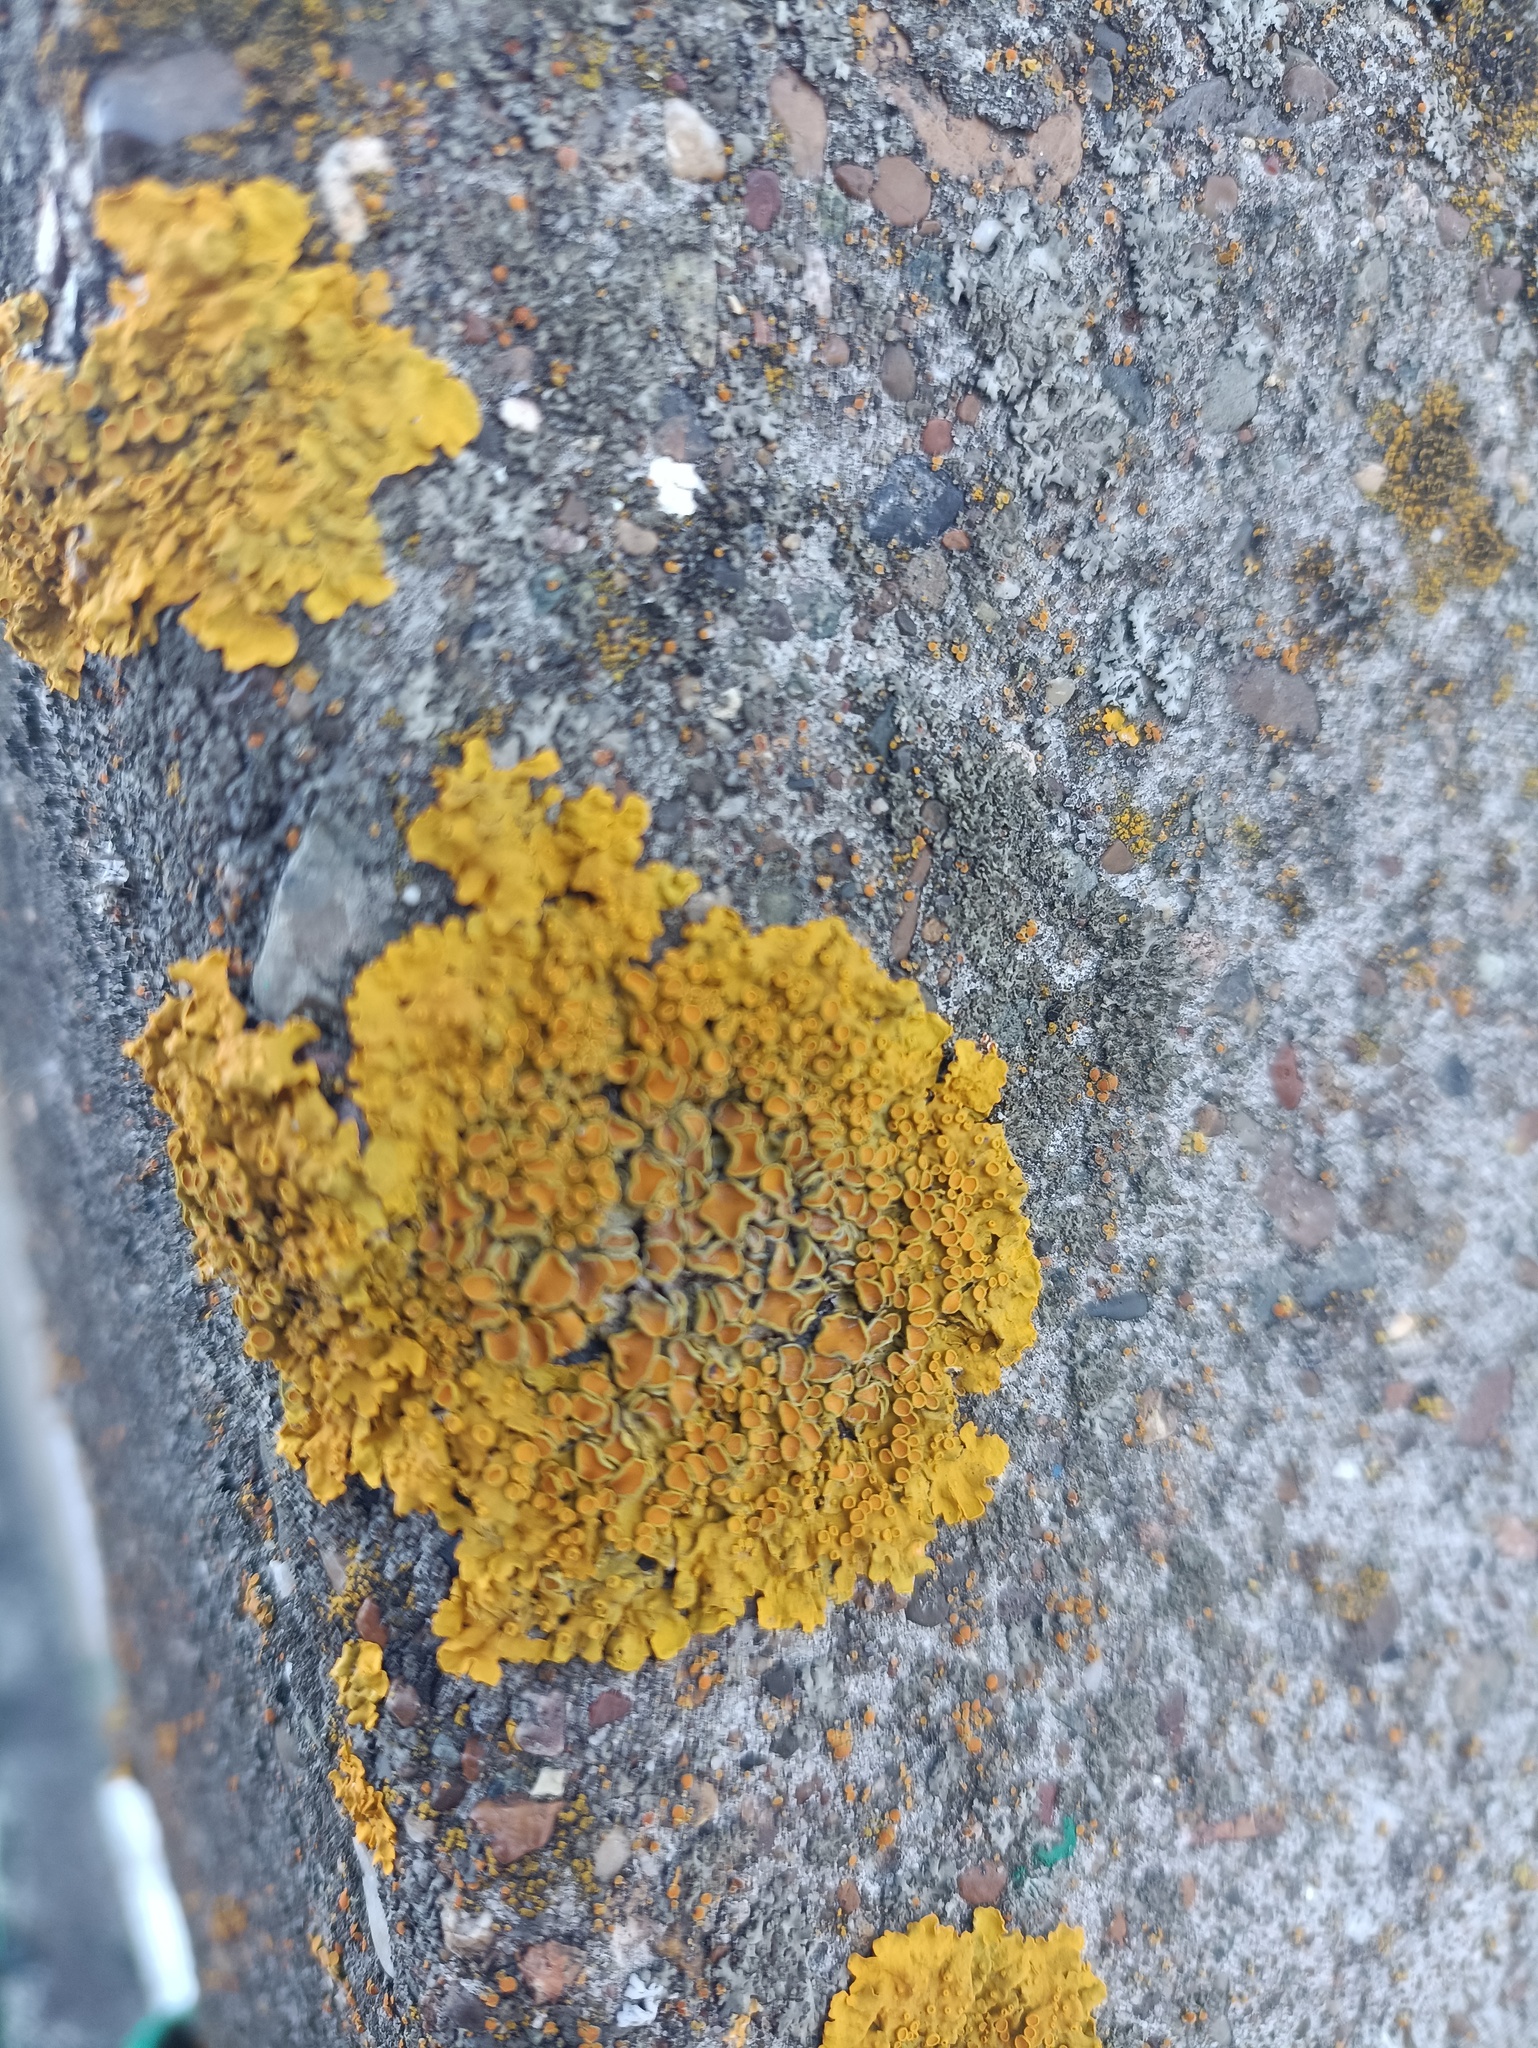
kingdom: Fungi
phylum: Ascomycota
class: Lecanoromycetes
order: Teloschistales
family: Teloschistaceae
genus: Xanthoria
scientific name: Xanthoria parietina
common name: Common orange lichen
